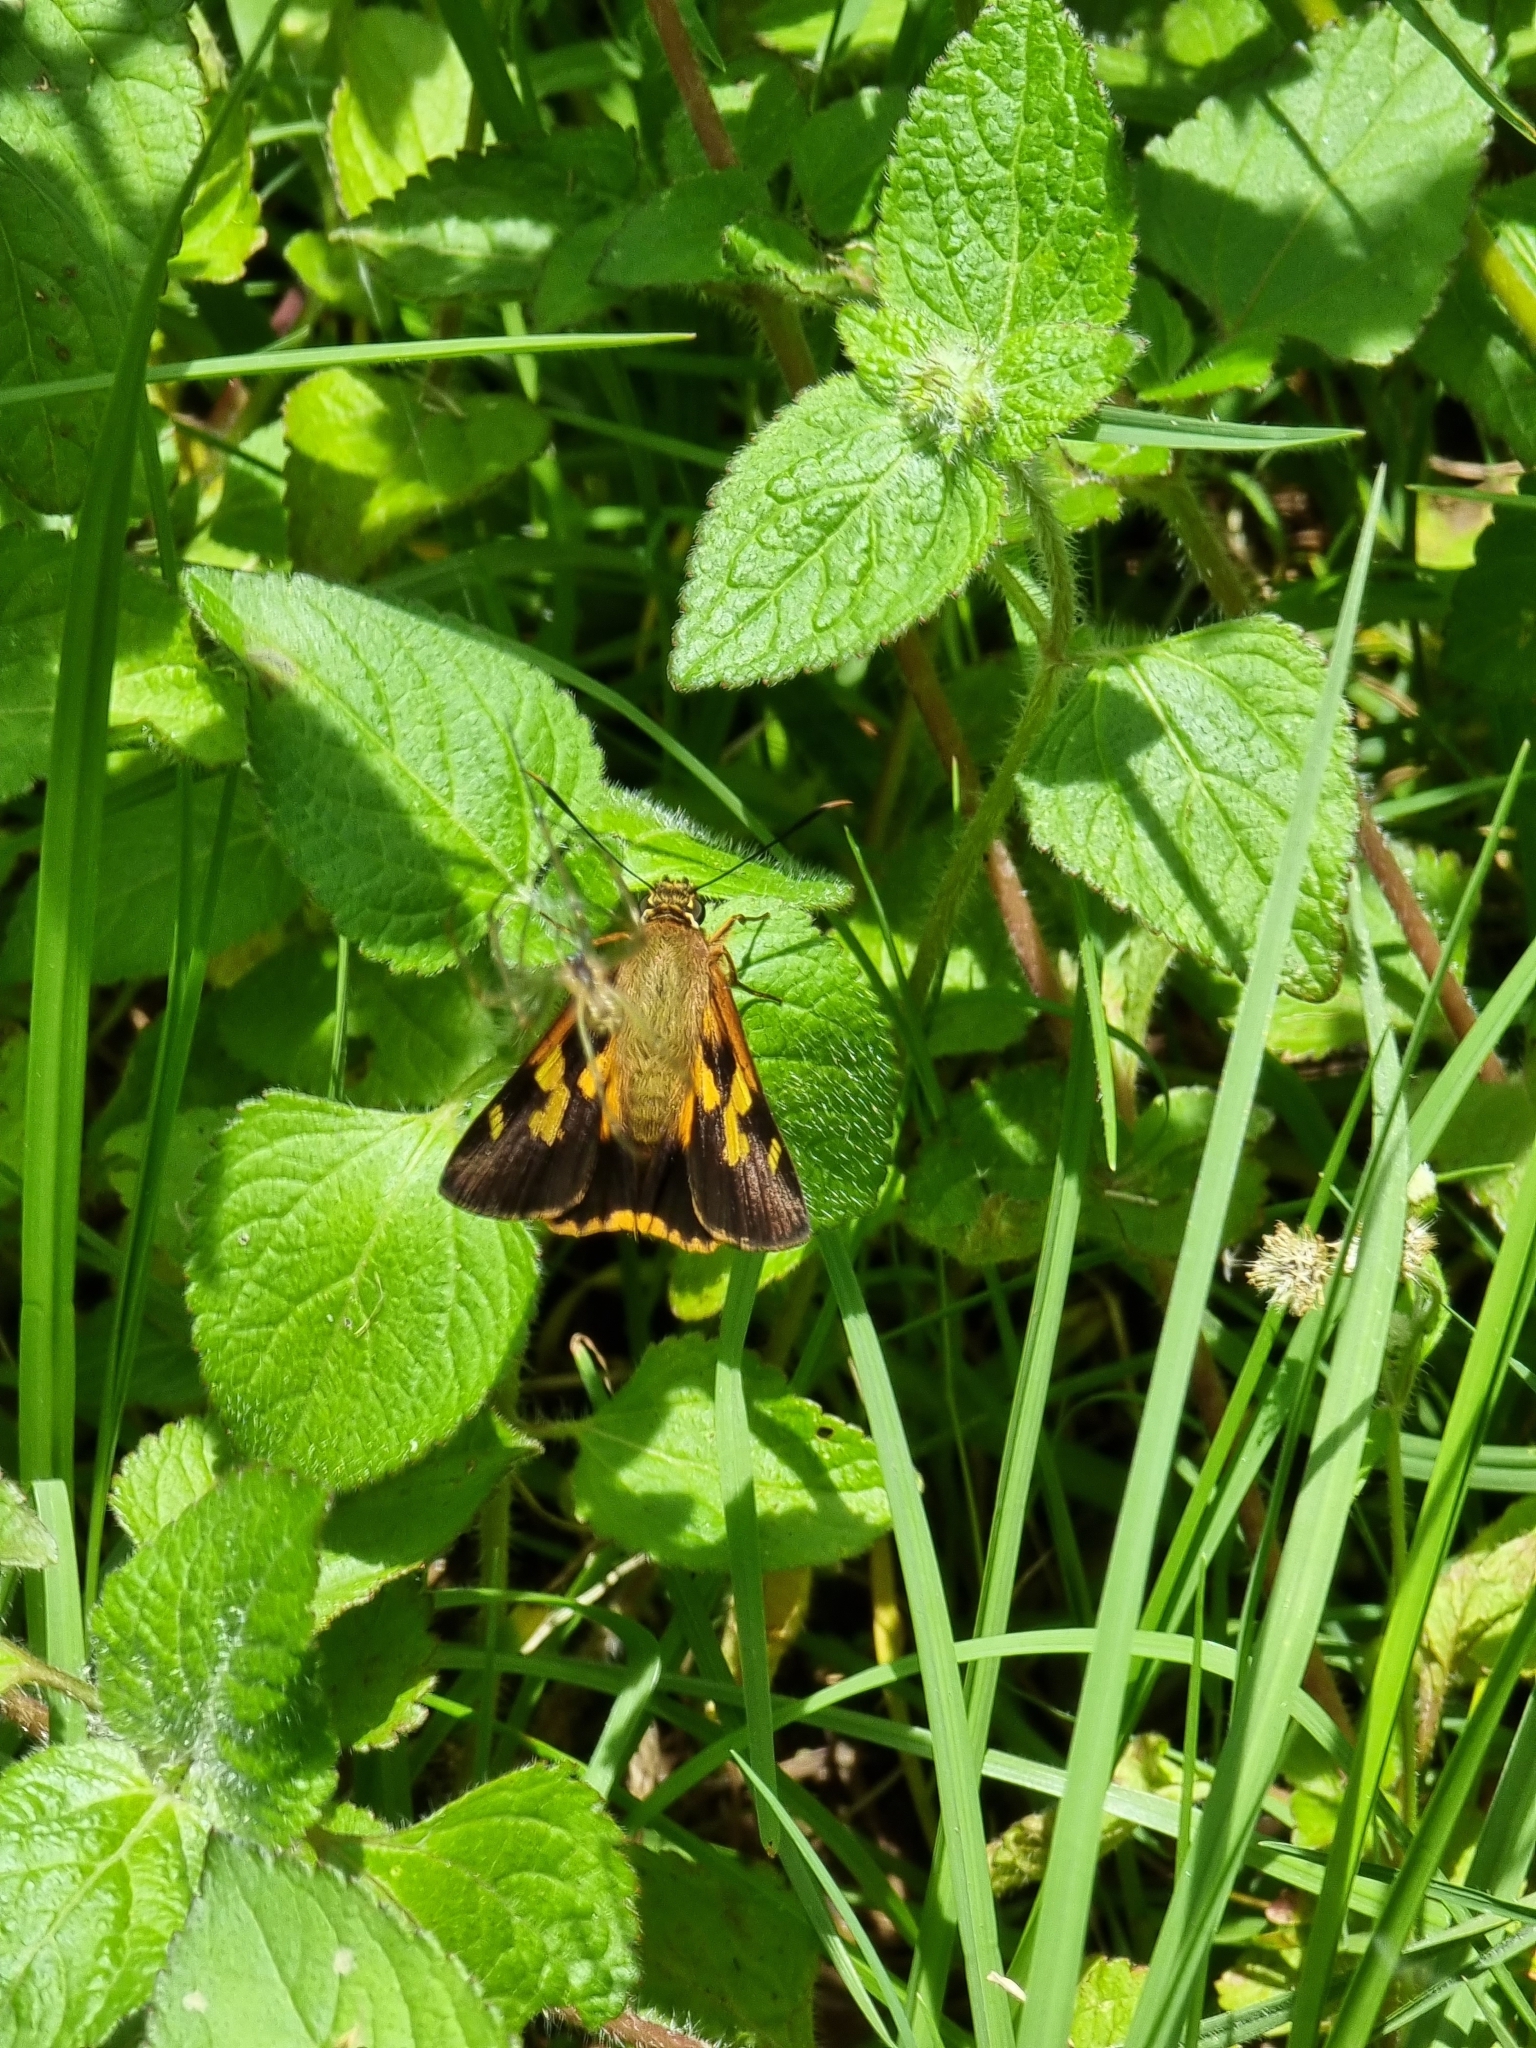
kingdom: Animalia
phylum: Arthropoda
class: Insecta
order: Lepidoptera
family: Hesperiidae
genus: Trapezites
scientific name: Trapezites symmomus
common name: Splendid ochre
